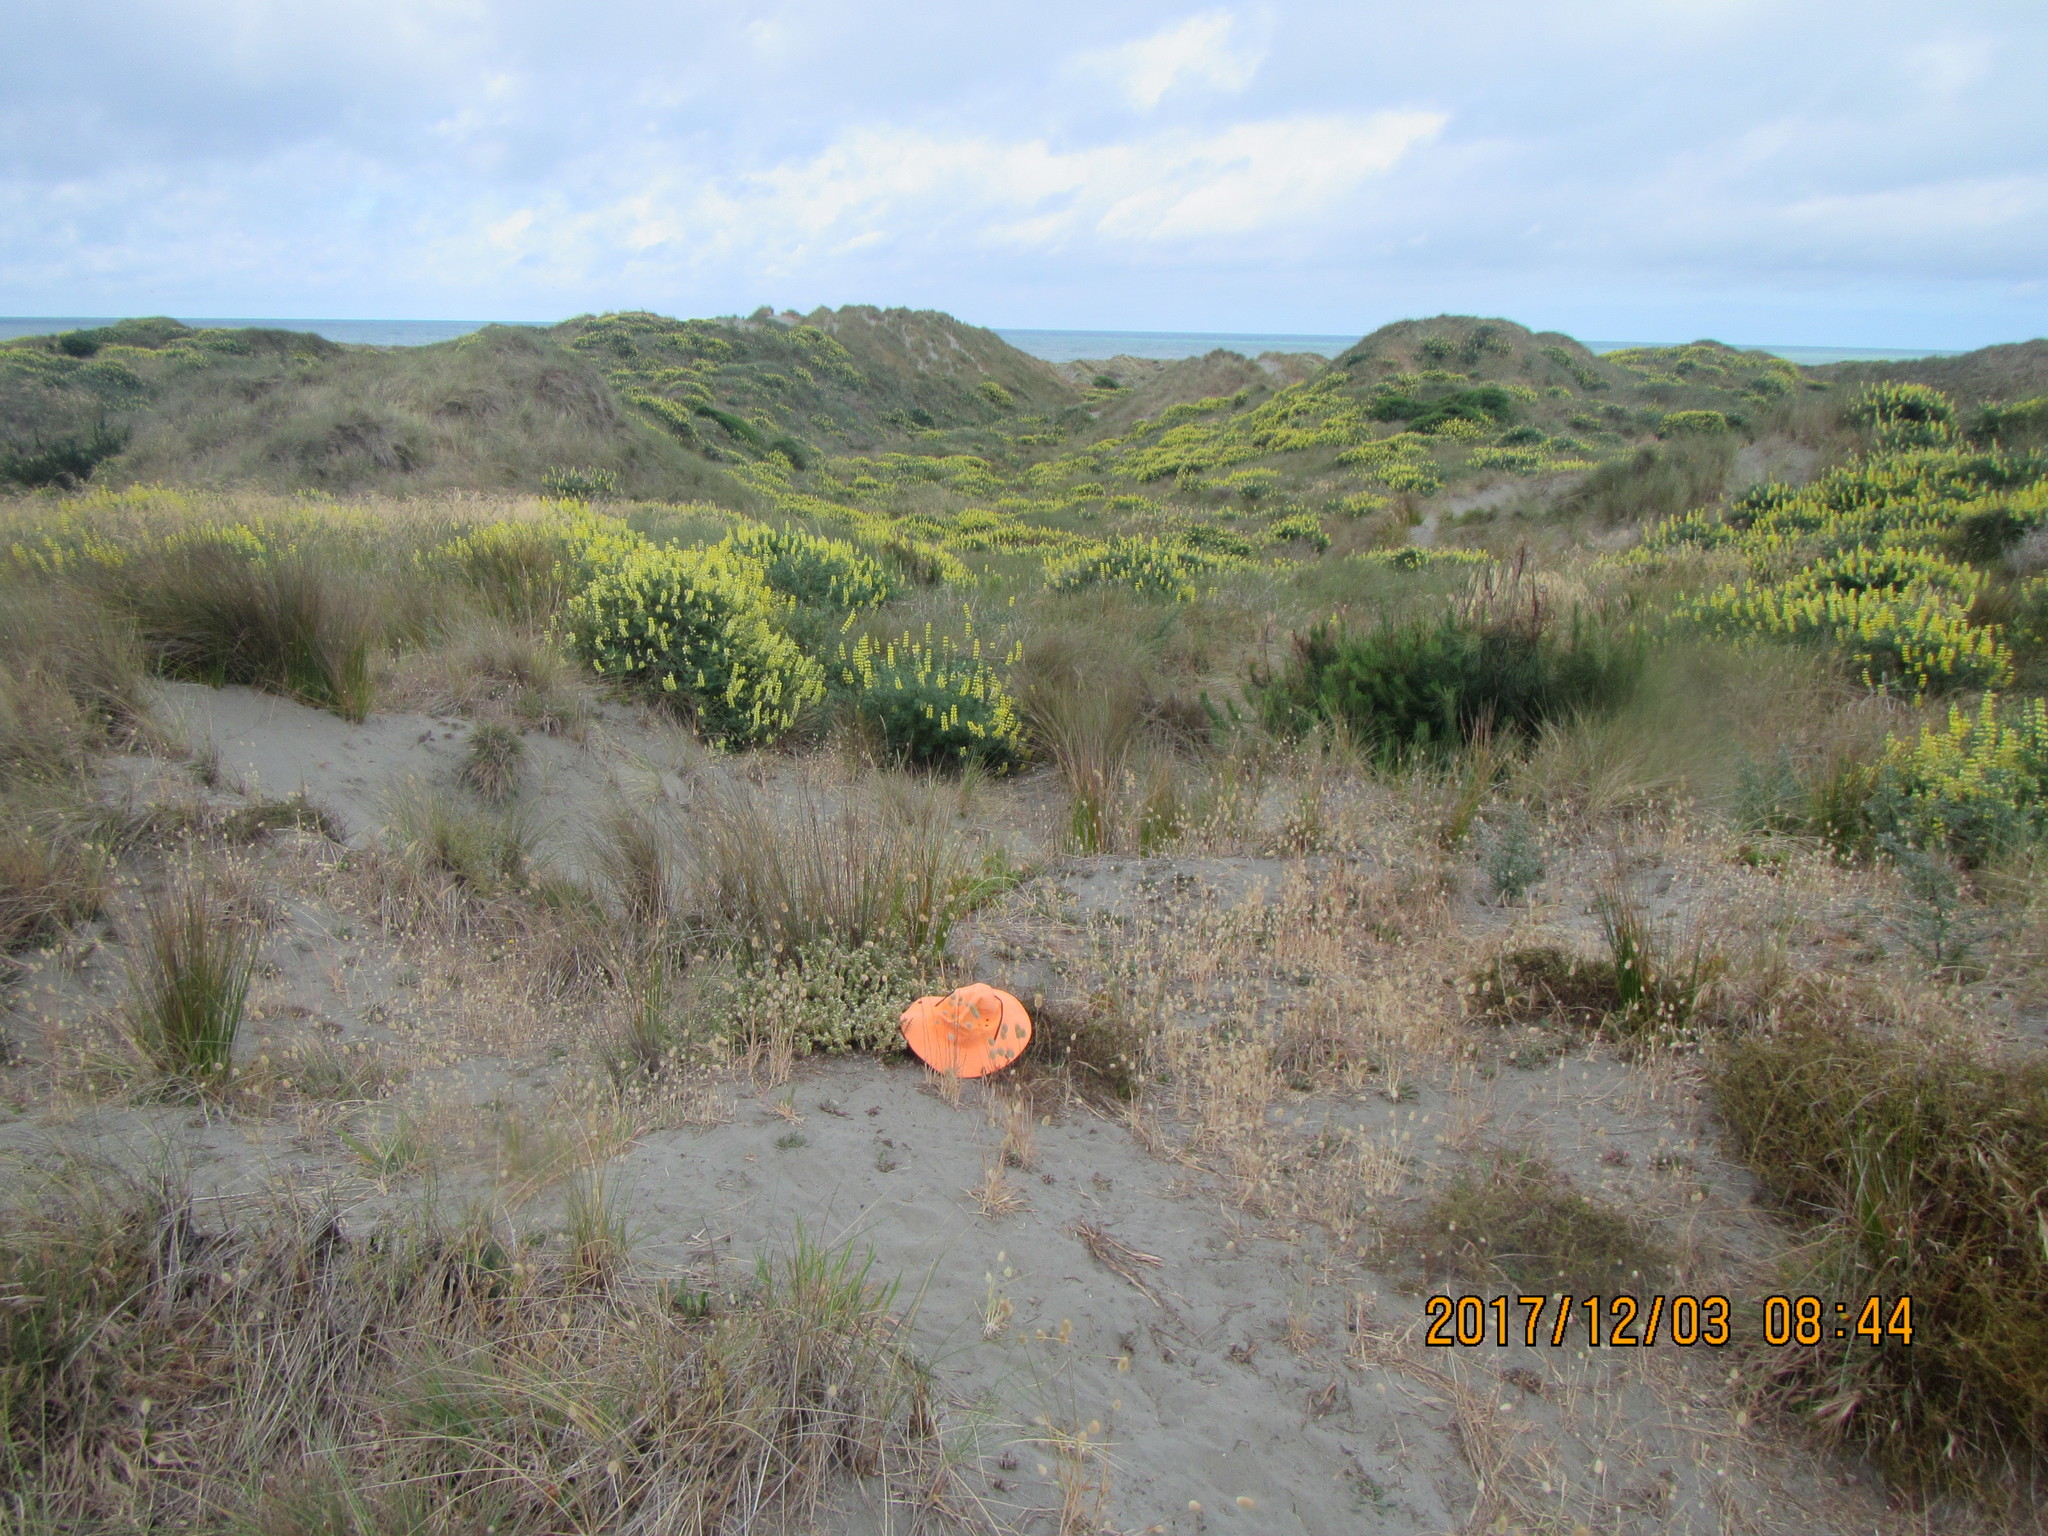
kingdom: Plantae
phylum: Tracheophyta
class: Magnoliopsida
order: Malvales
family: Thymelaeaceae
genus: Pimelea
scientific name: Pimelea villosa
